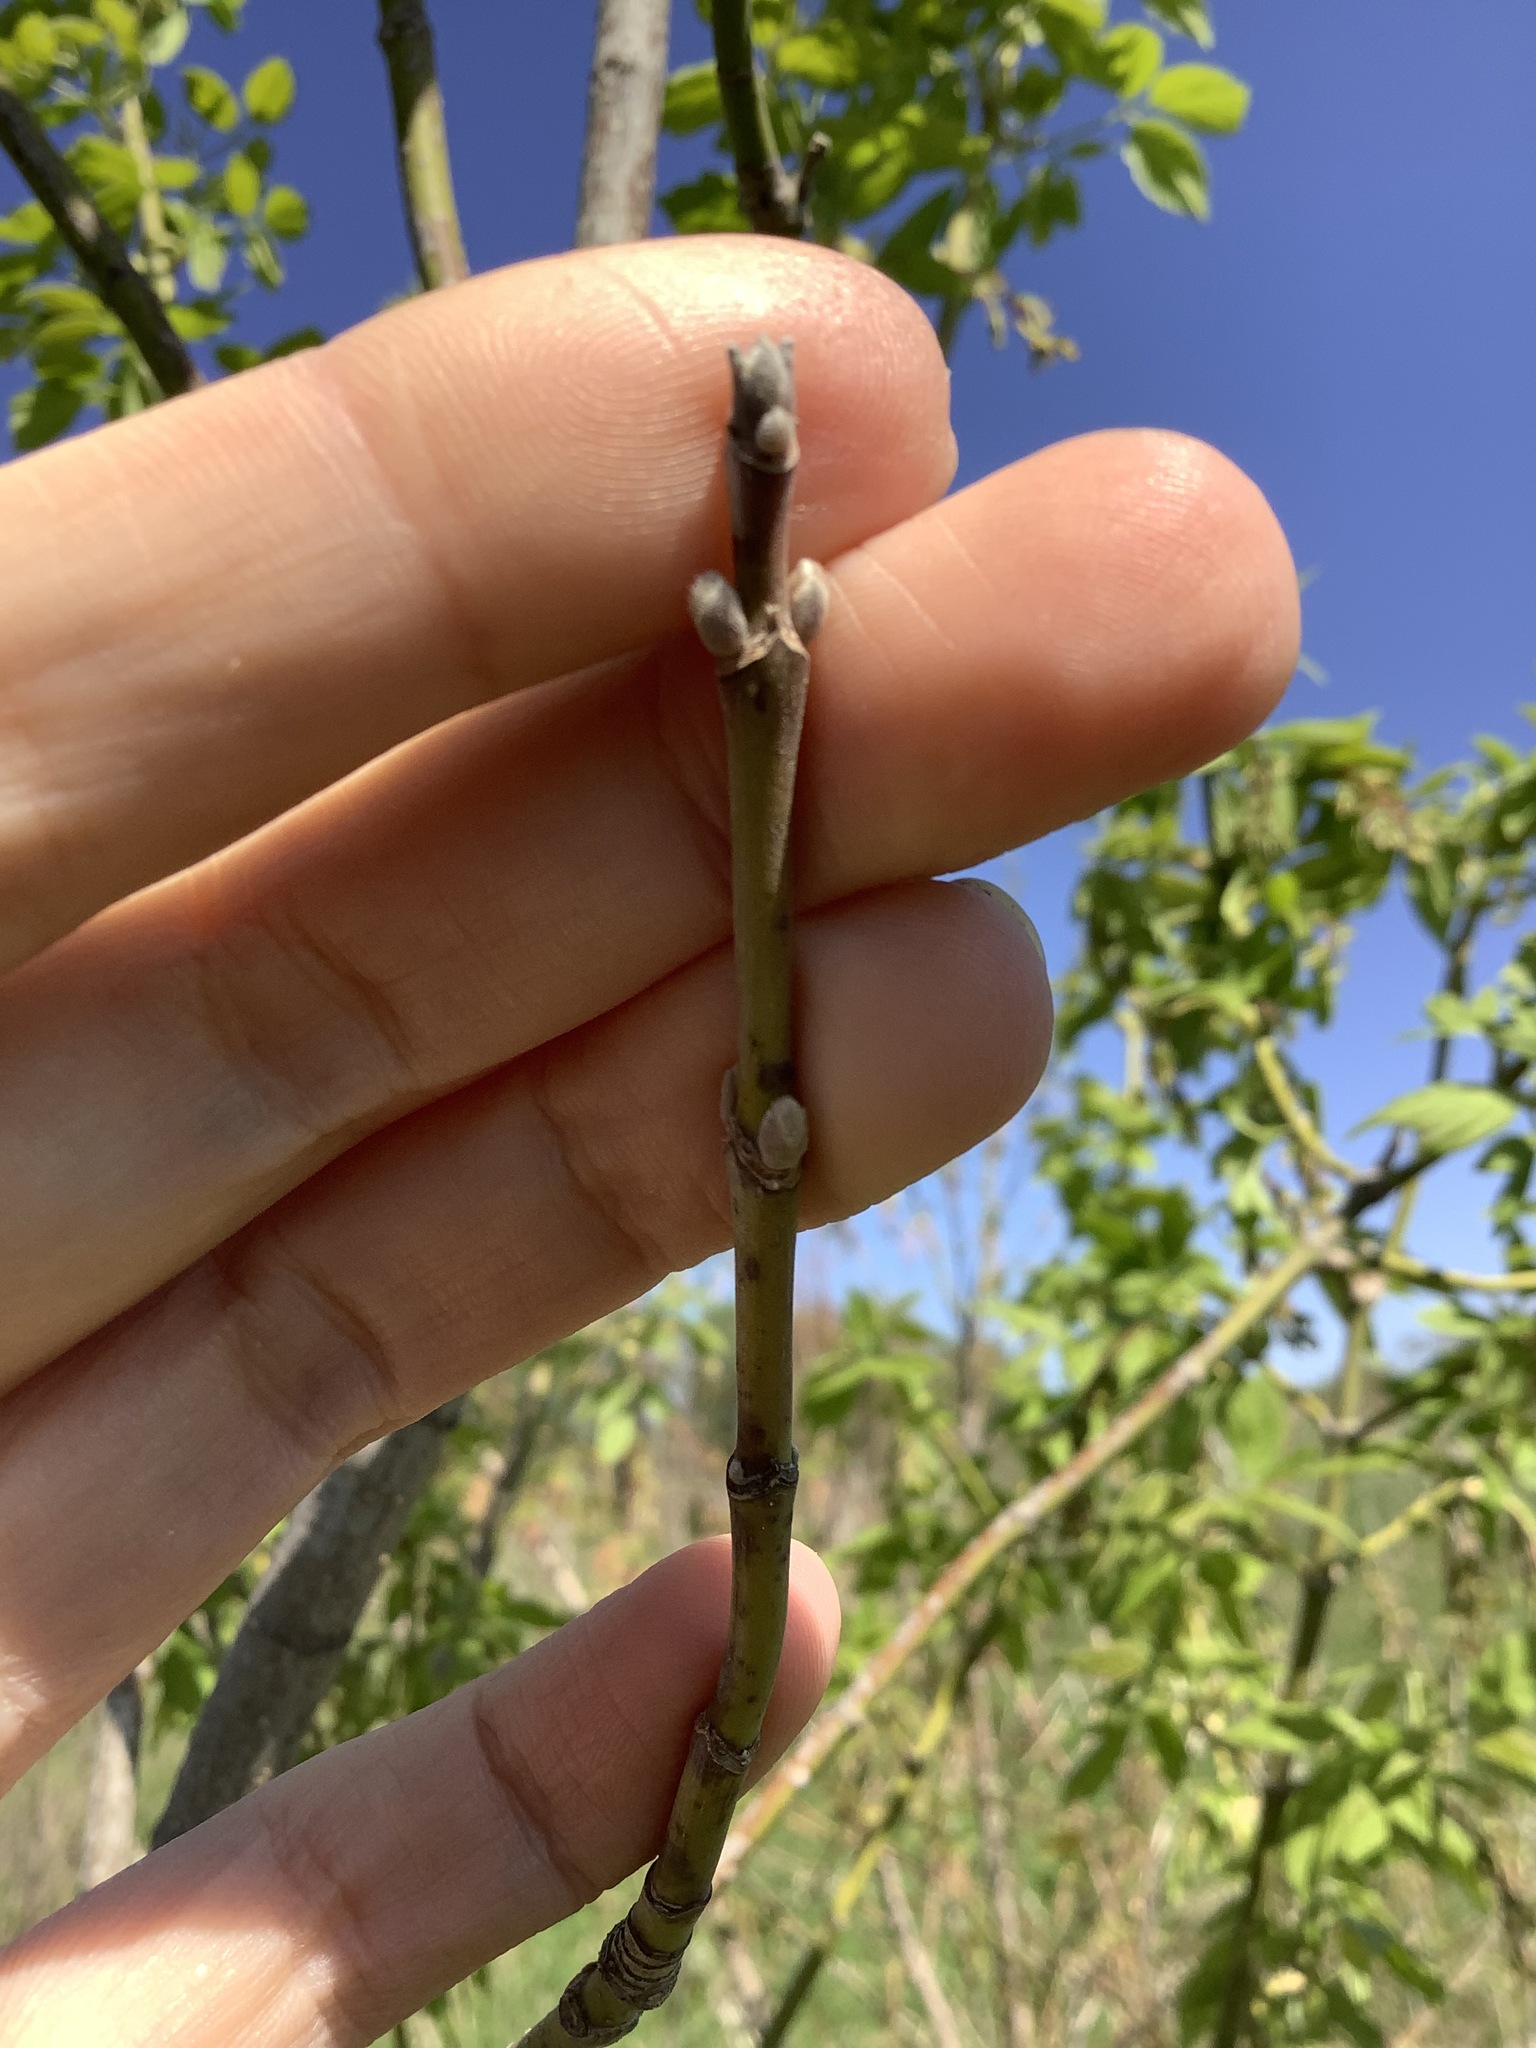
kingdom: Plantae
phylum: Tracheophyta
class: Magnoliopsida
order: Sapindales
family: Sapindaceae
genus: Acer
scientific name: Acer negundo
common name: Ashleaf maple
